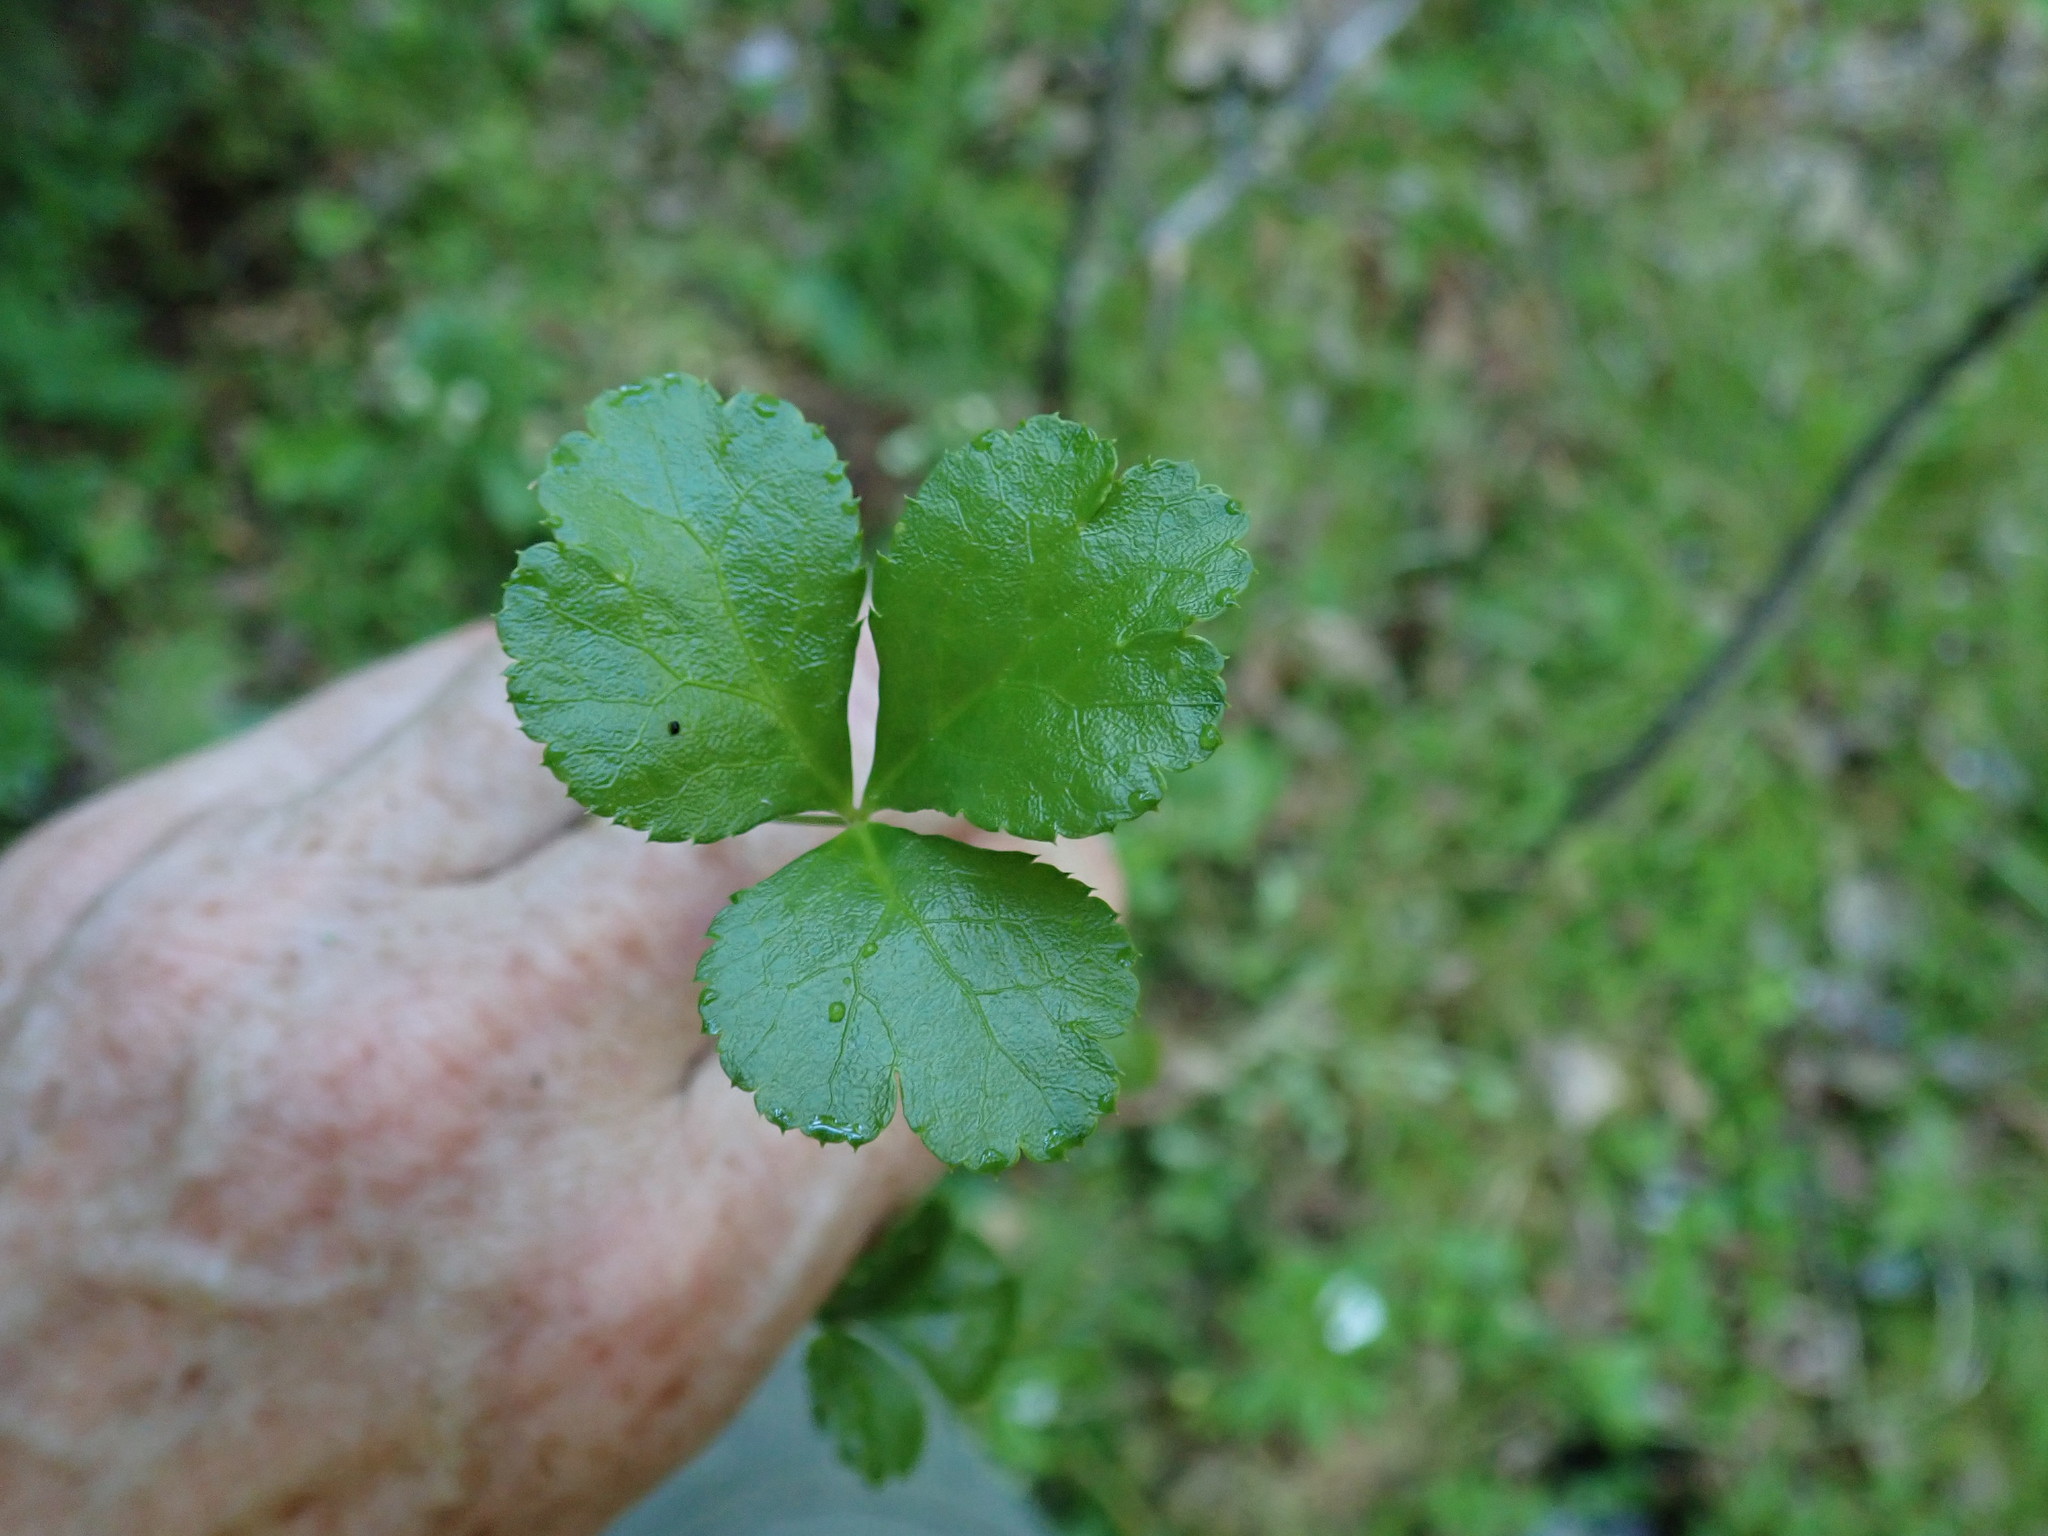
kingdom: Plantae
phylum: Tracheophyta
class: Magnoliopsida
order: Ranunculales
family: Ranunculaceae
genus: Coptis
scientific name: Coptis trifolia
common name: Canker-root
